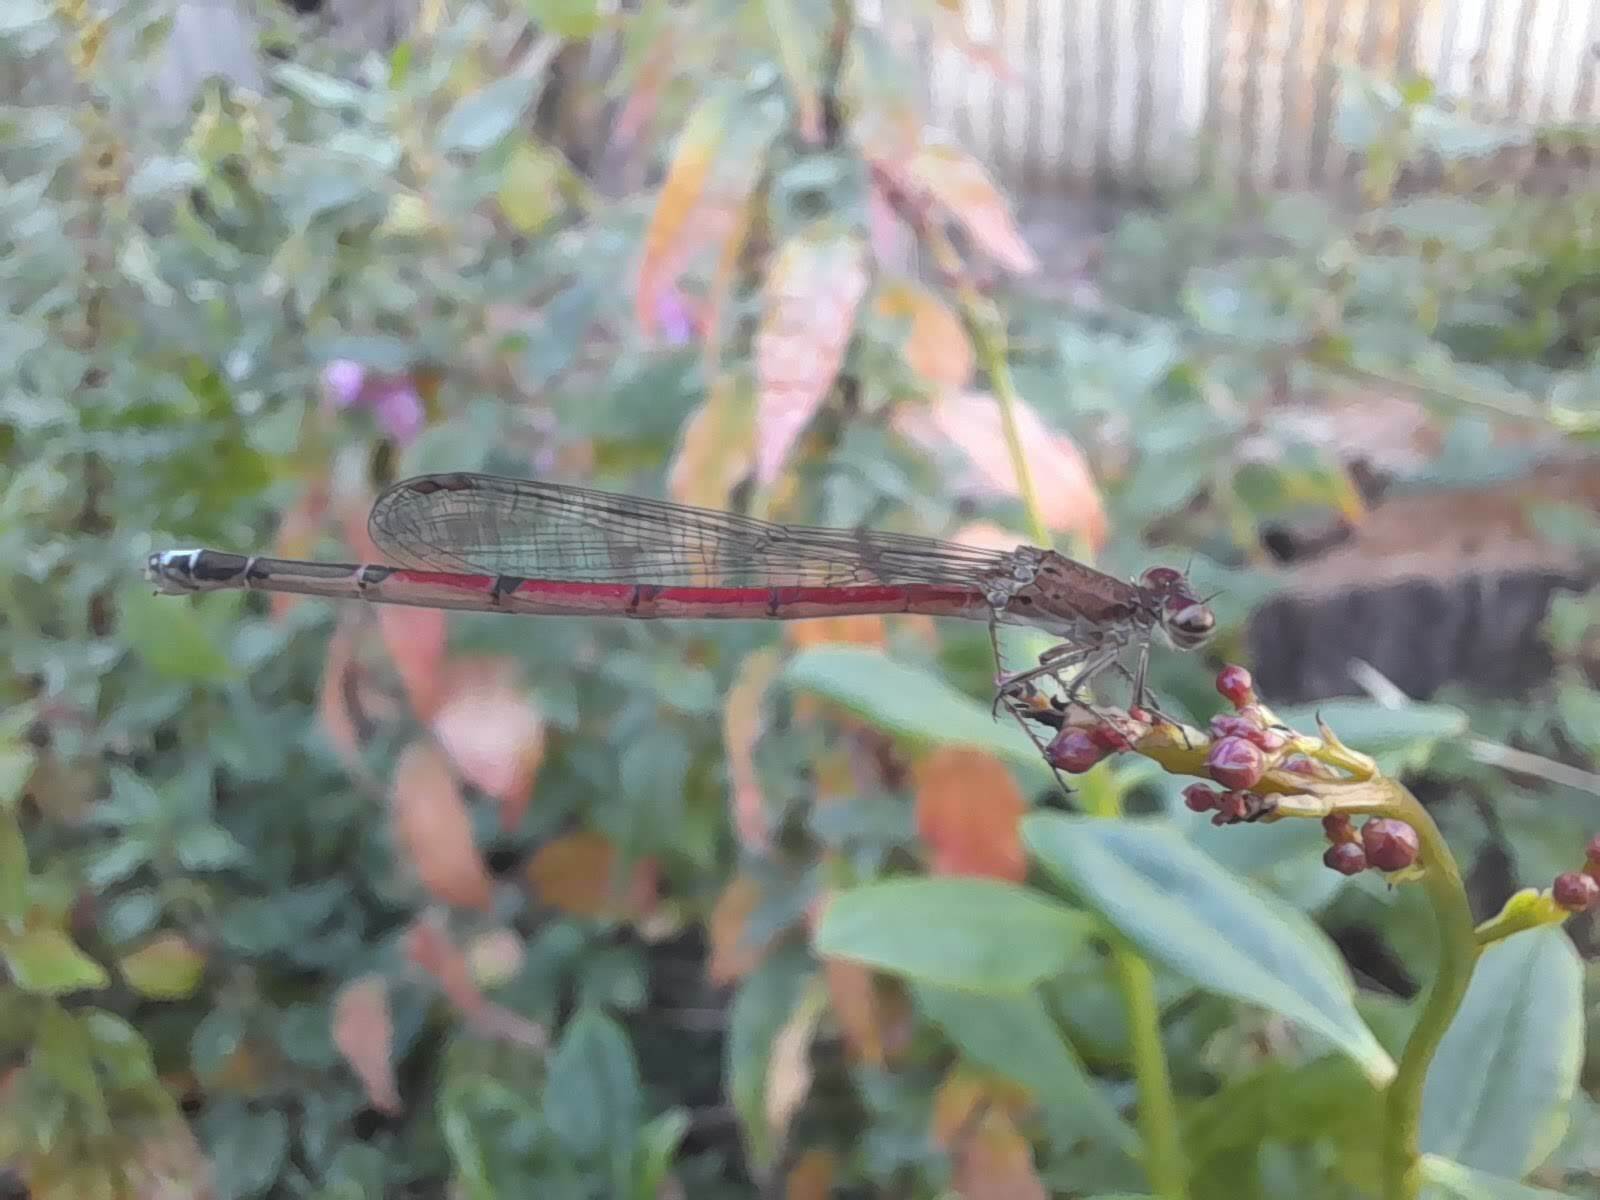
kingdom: Animalia
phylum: Arthropoda
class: Insecta
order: Odonata
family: Coenagrionidae
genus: Oxyagrion
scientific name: Oxyagrion terminale
